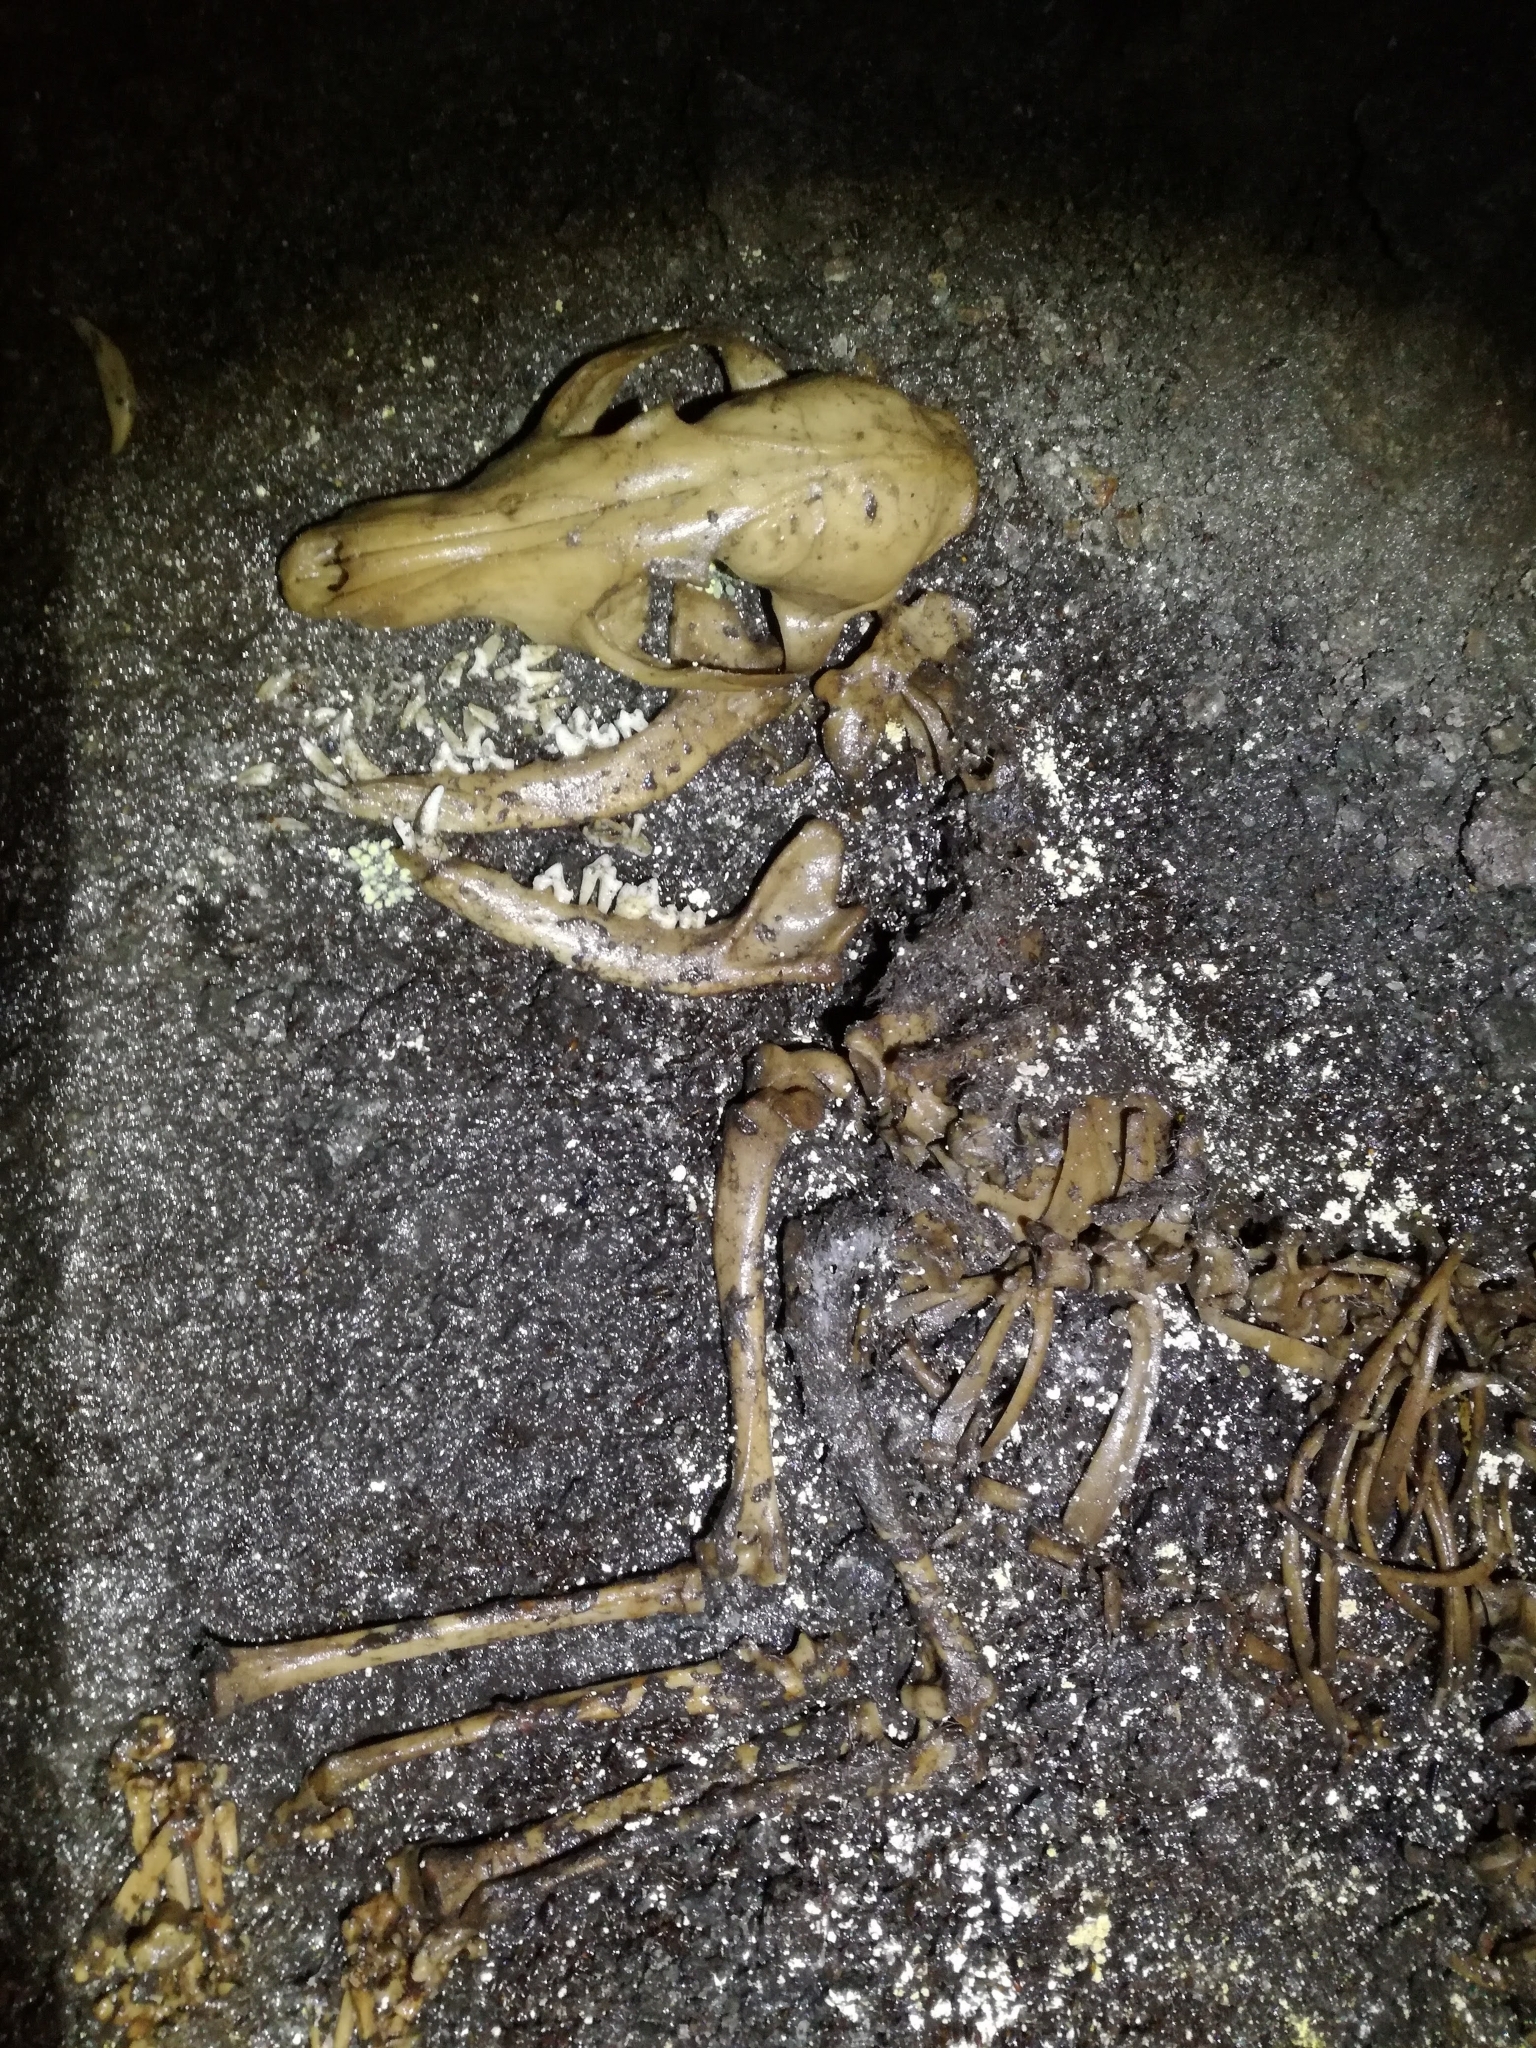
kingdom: Animalia
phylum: Chordata
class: Mammalia
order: Carnivora
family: Canidae
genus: Vulpes
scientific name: Vulpes vulpes
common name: Red fox
